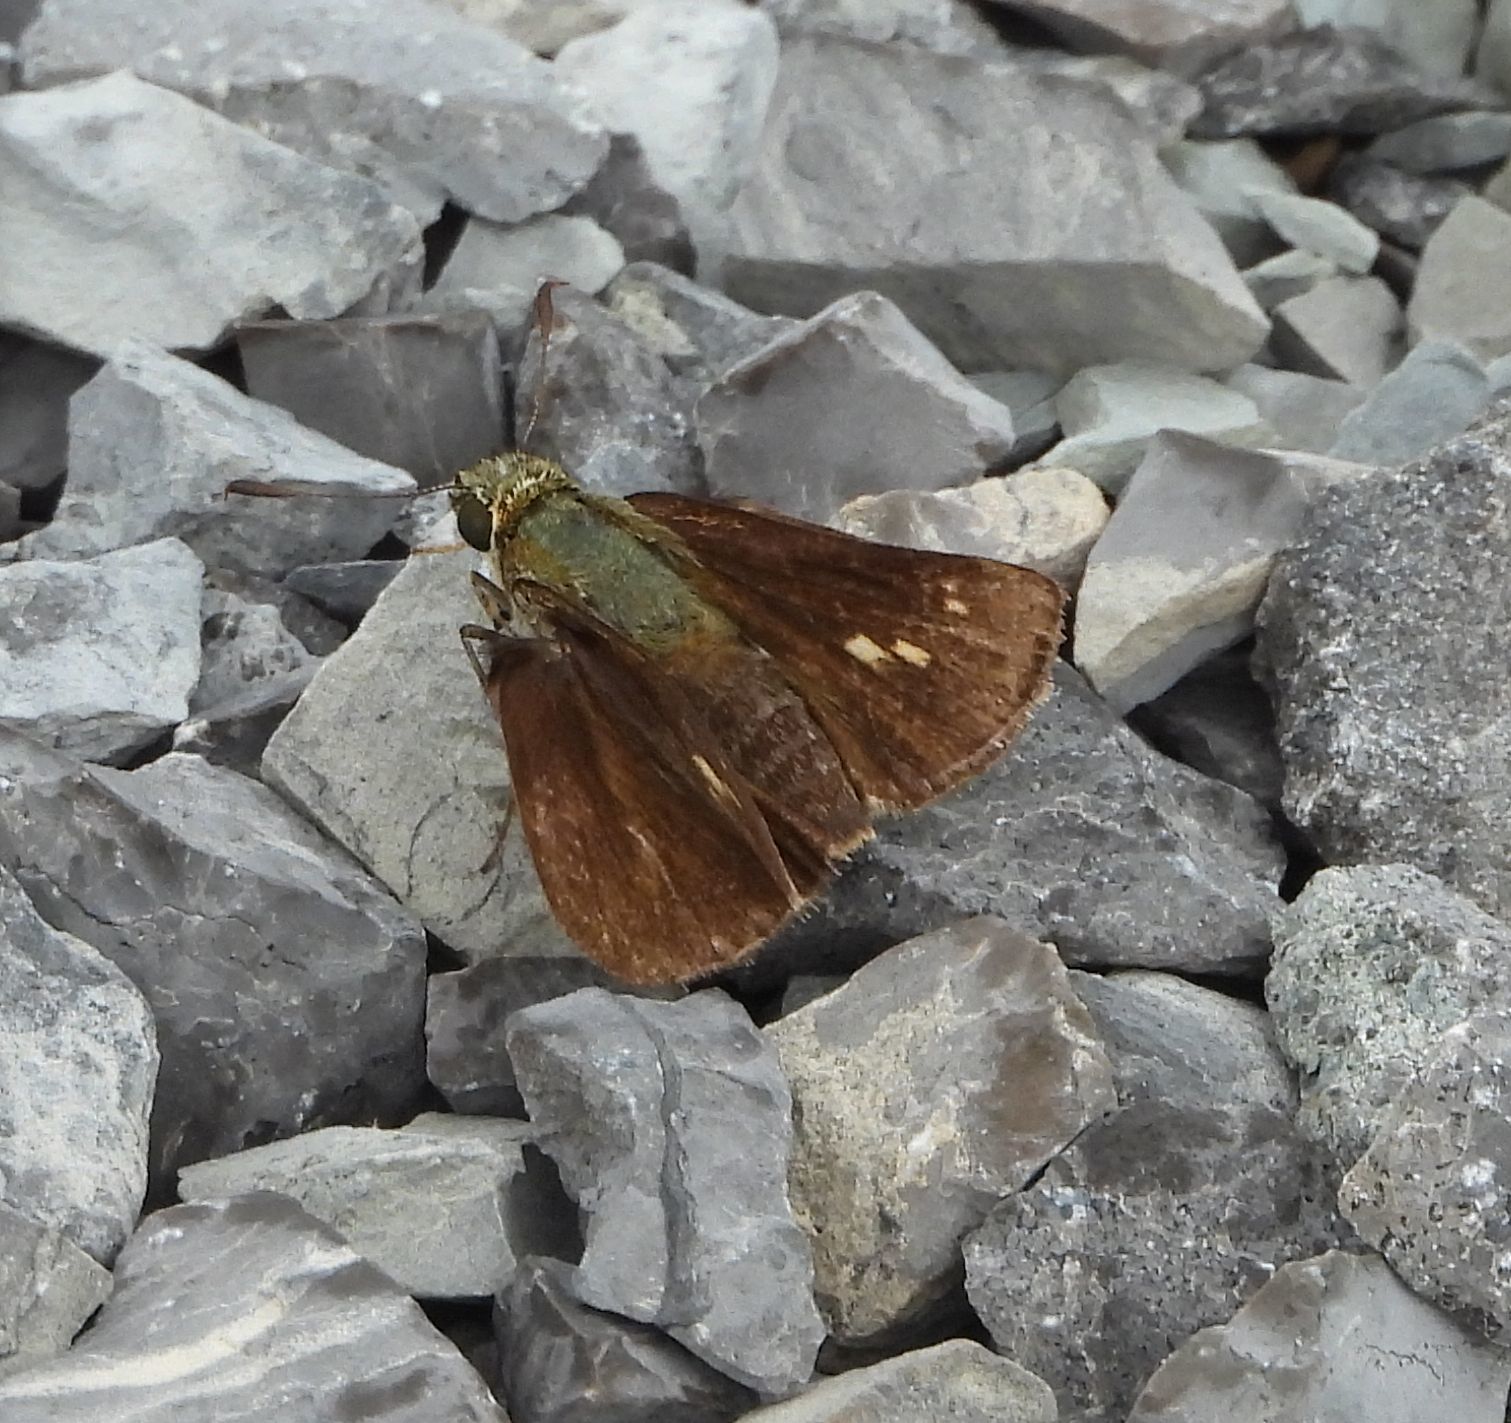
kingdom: Animalia
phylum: Arthropoda
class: Insecta
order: Lepidoptera
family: Hesperiidae
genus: Polites
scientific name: Polites egeremet
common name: Northern broken-dash
